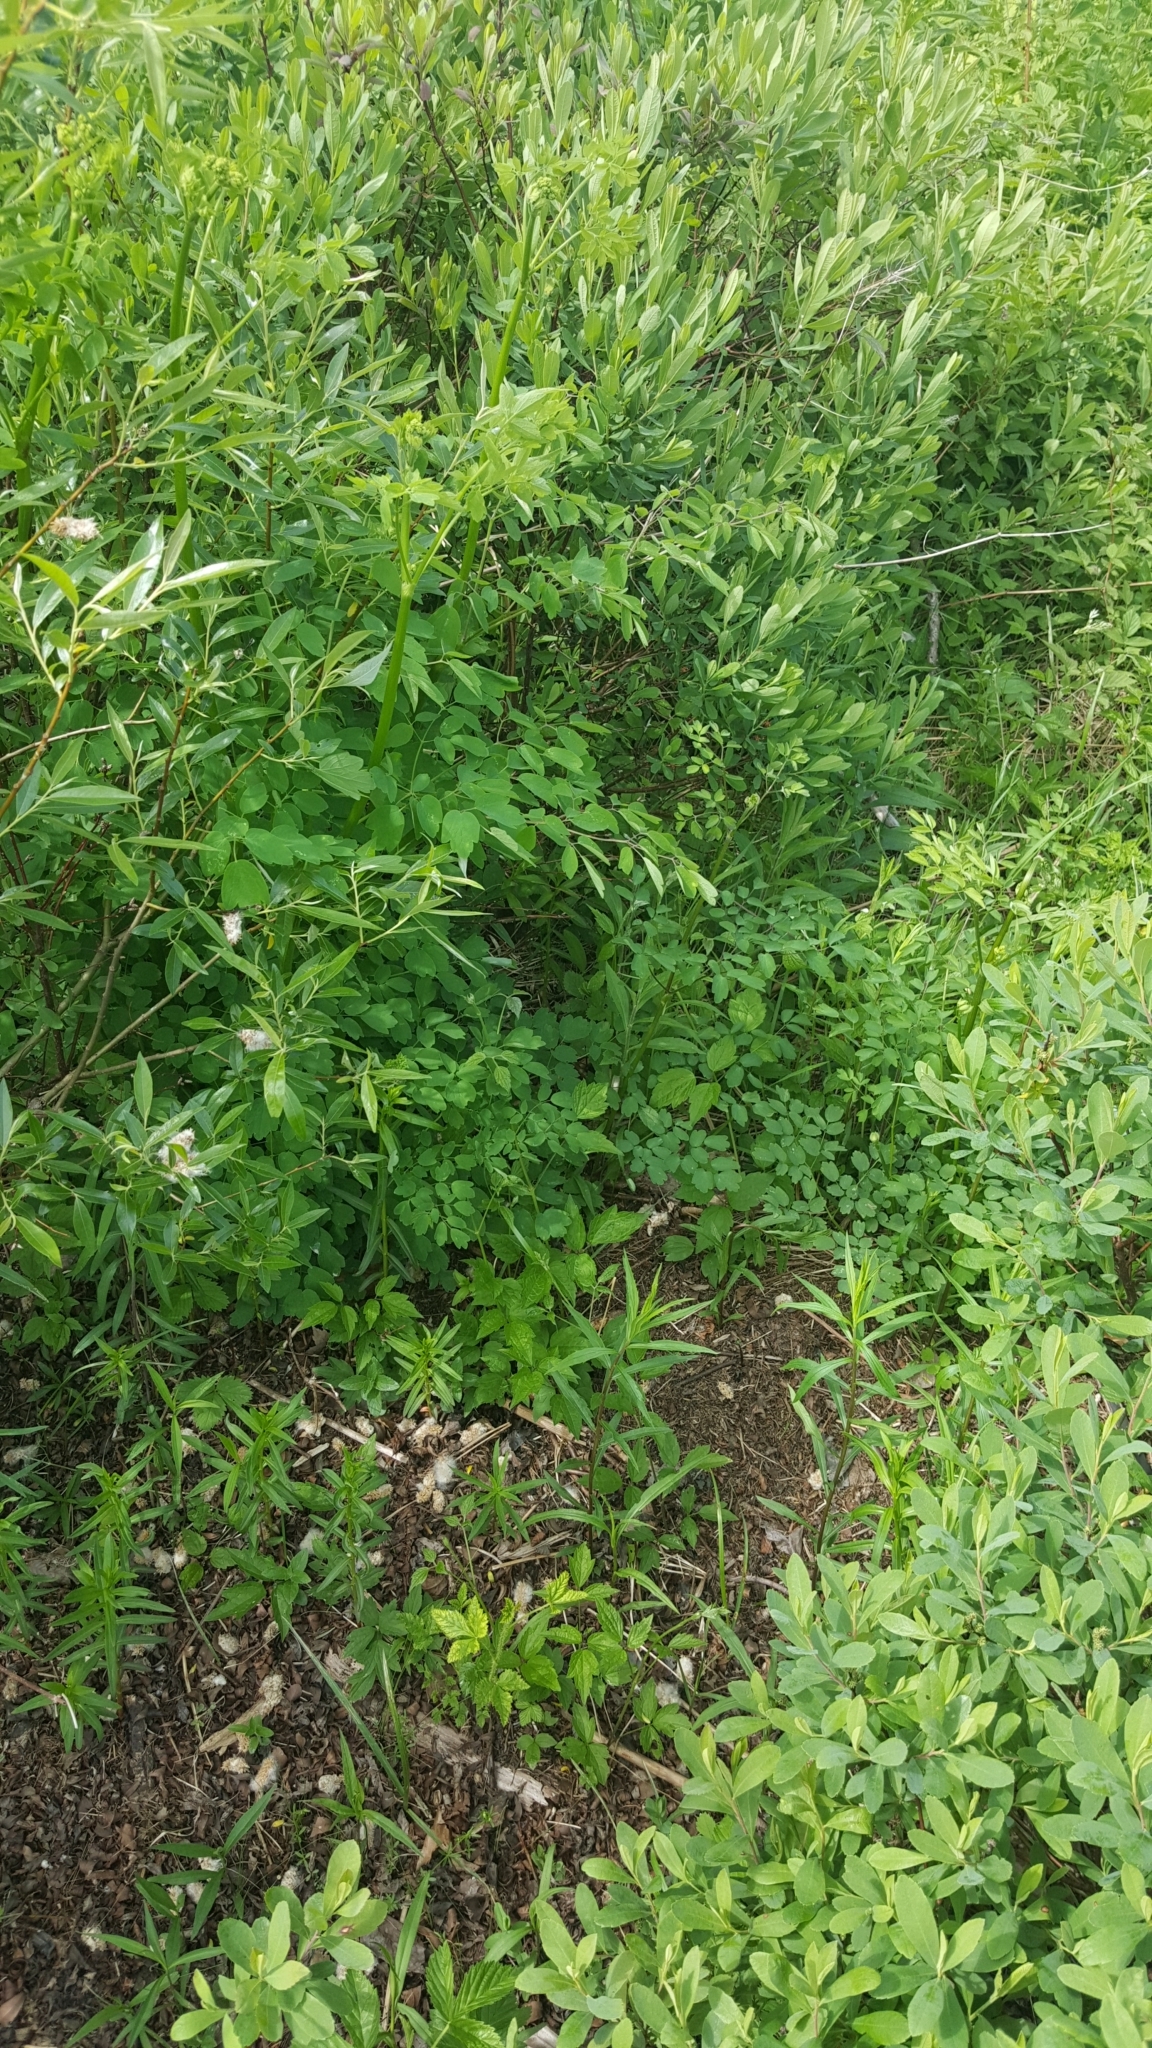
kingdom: Plantae
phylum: Tracheophyta
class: Magnoliopsida
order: Ranunculales
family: Ranunculaceae
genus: Thalictrum
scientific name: Thalictrum pubescens
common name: King-of-the-meadow
